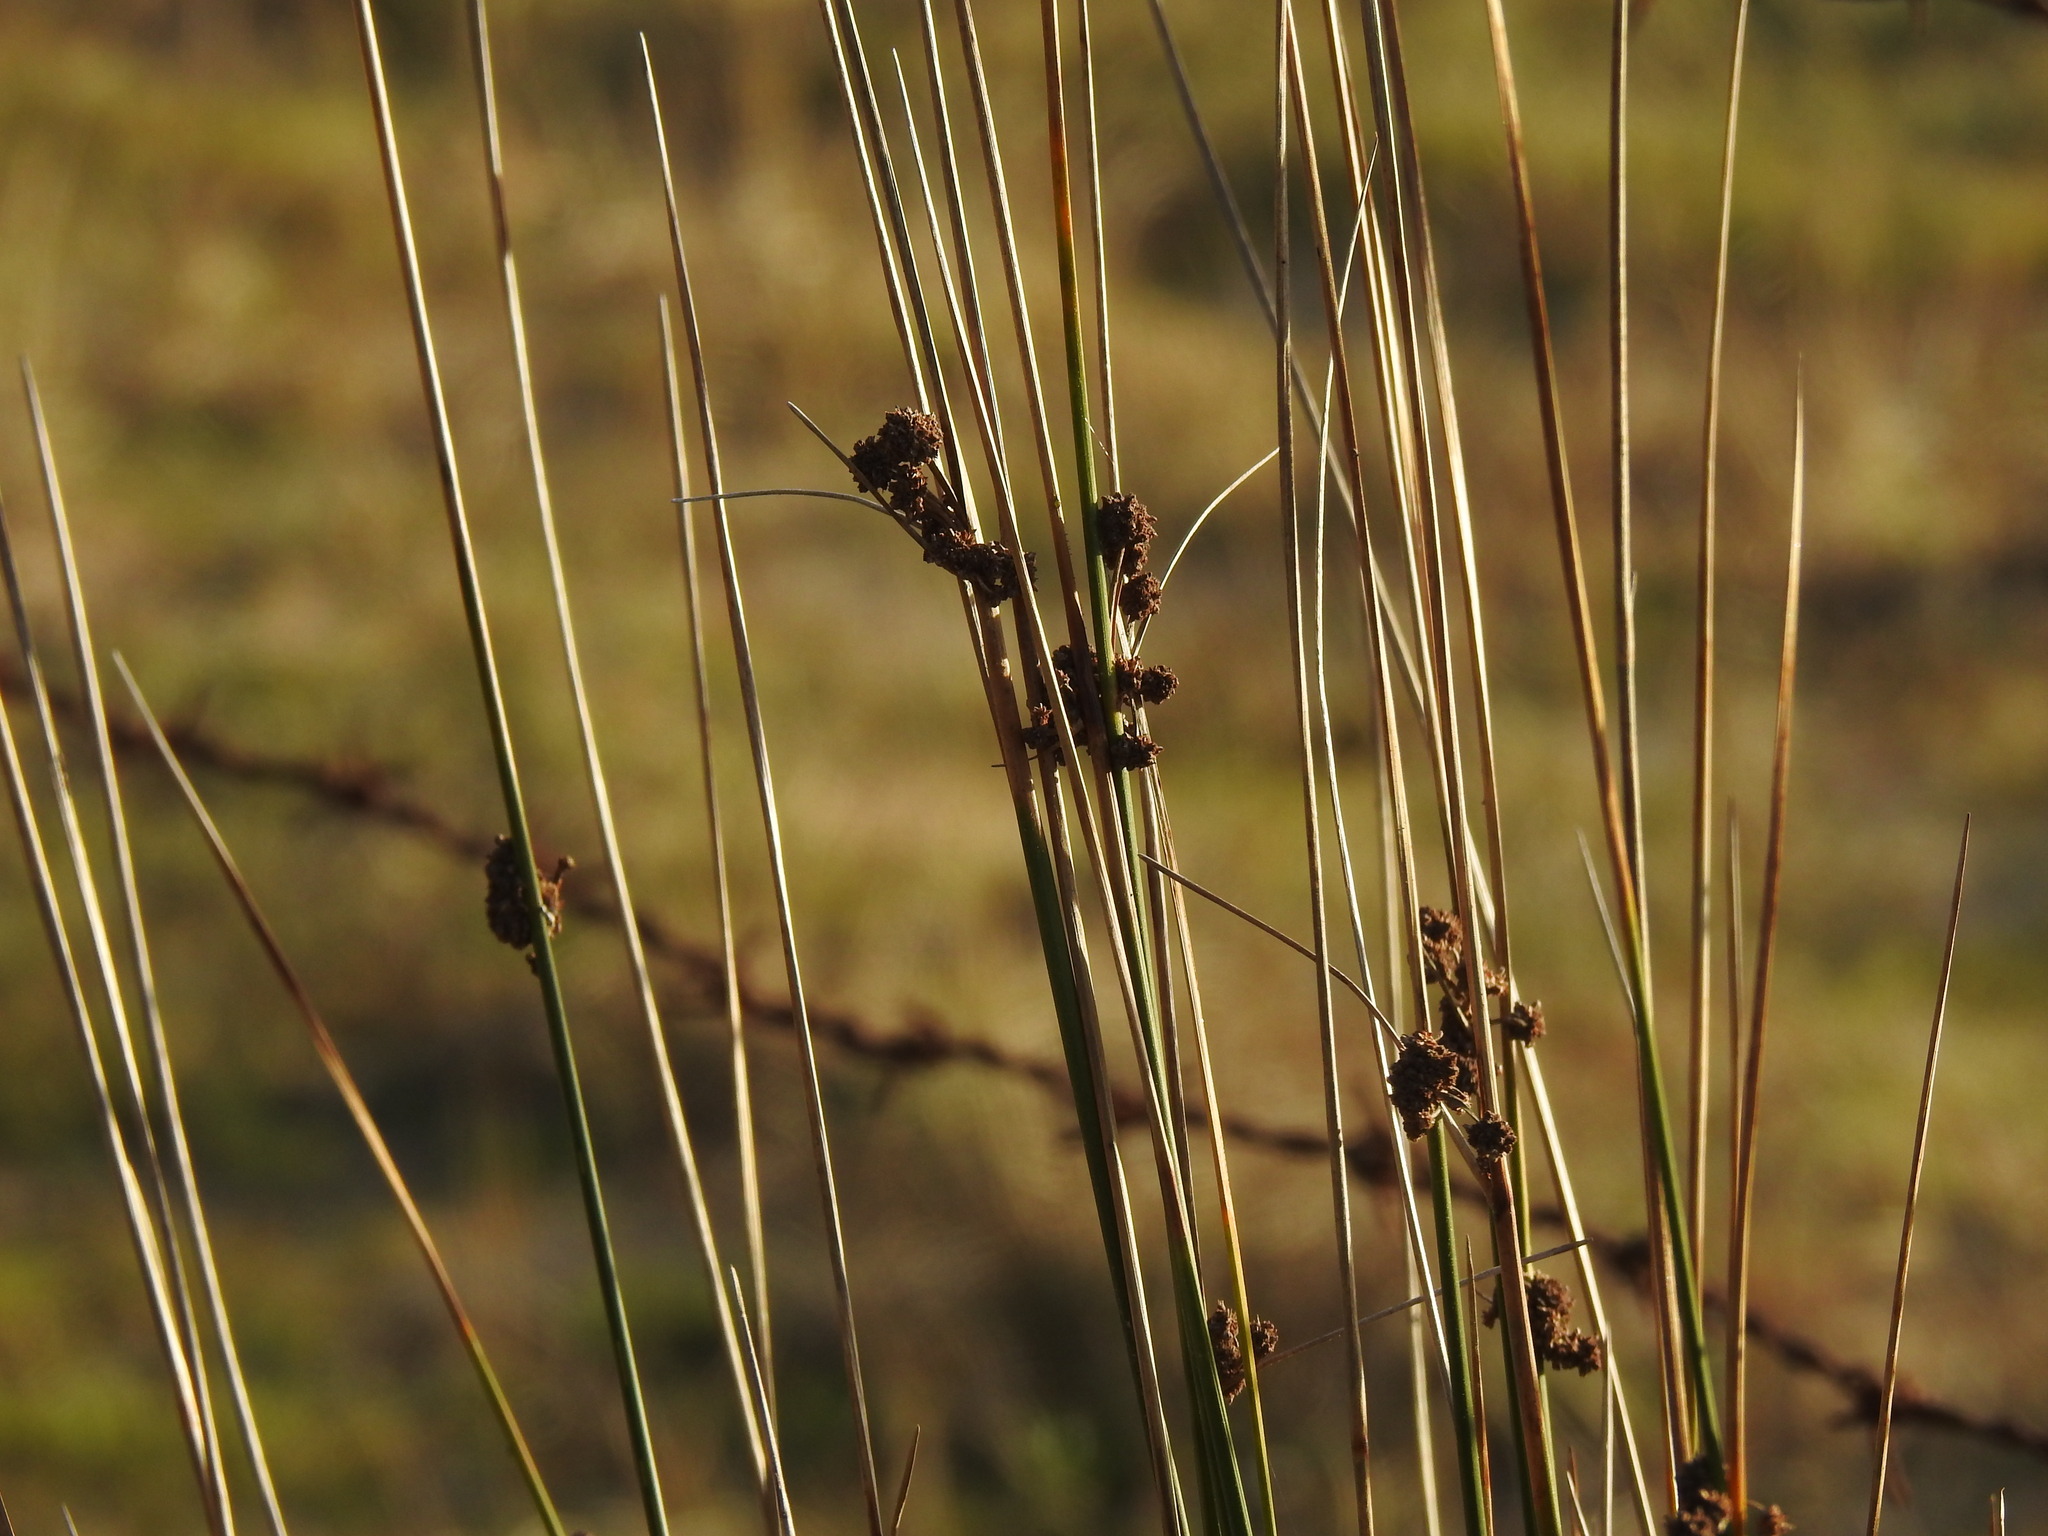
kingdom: Plantae
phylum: Tracheophyta
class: Liliopsida
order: Poales
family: Cyperaceae
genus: Scirpoides
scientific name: Scirpoides holoschoenus
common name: Round-headed club-rush
